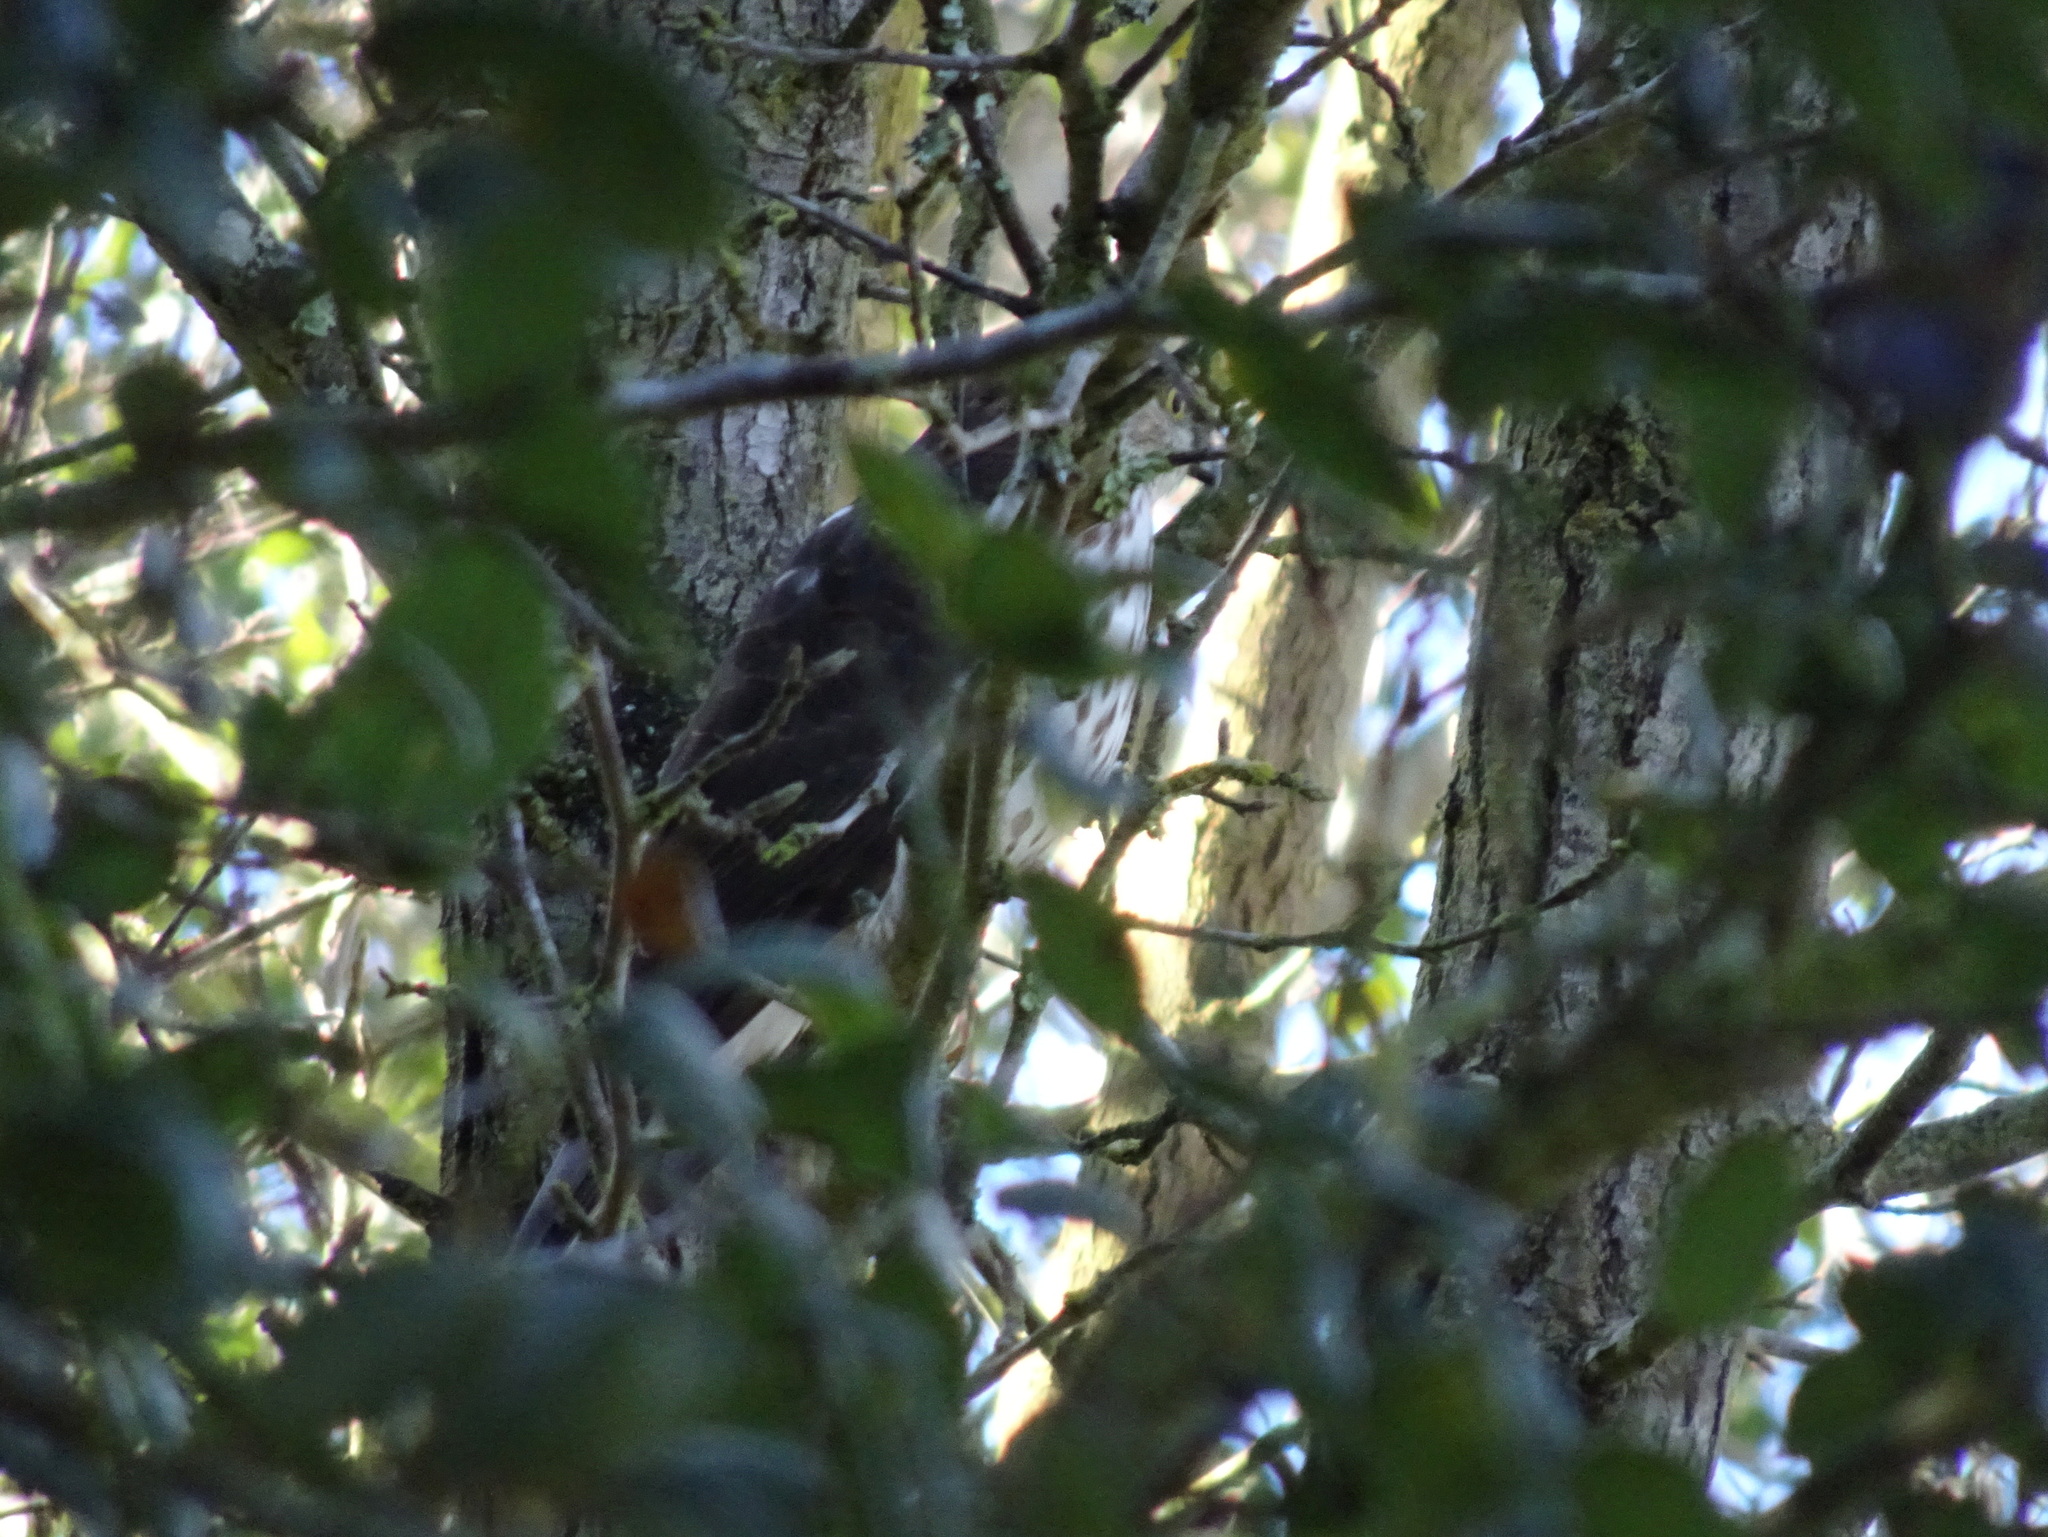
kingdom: Animalia
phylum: Chordata
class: Aves
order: Accipitriformes
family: Accipitridae
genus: Accipiter
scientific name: Accipiter striatus
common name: Sharp-shinned hawk
